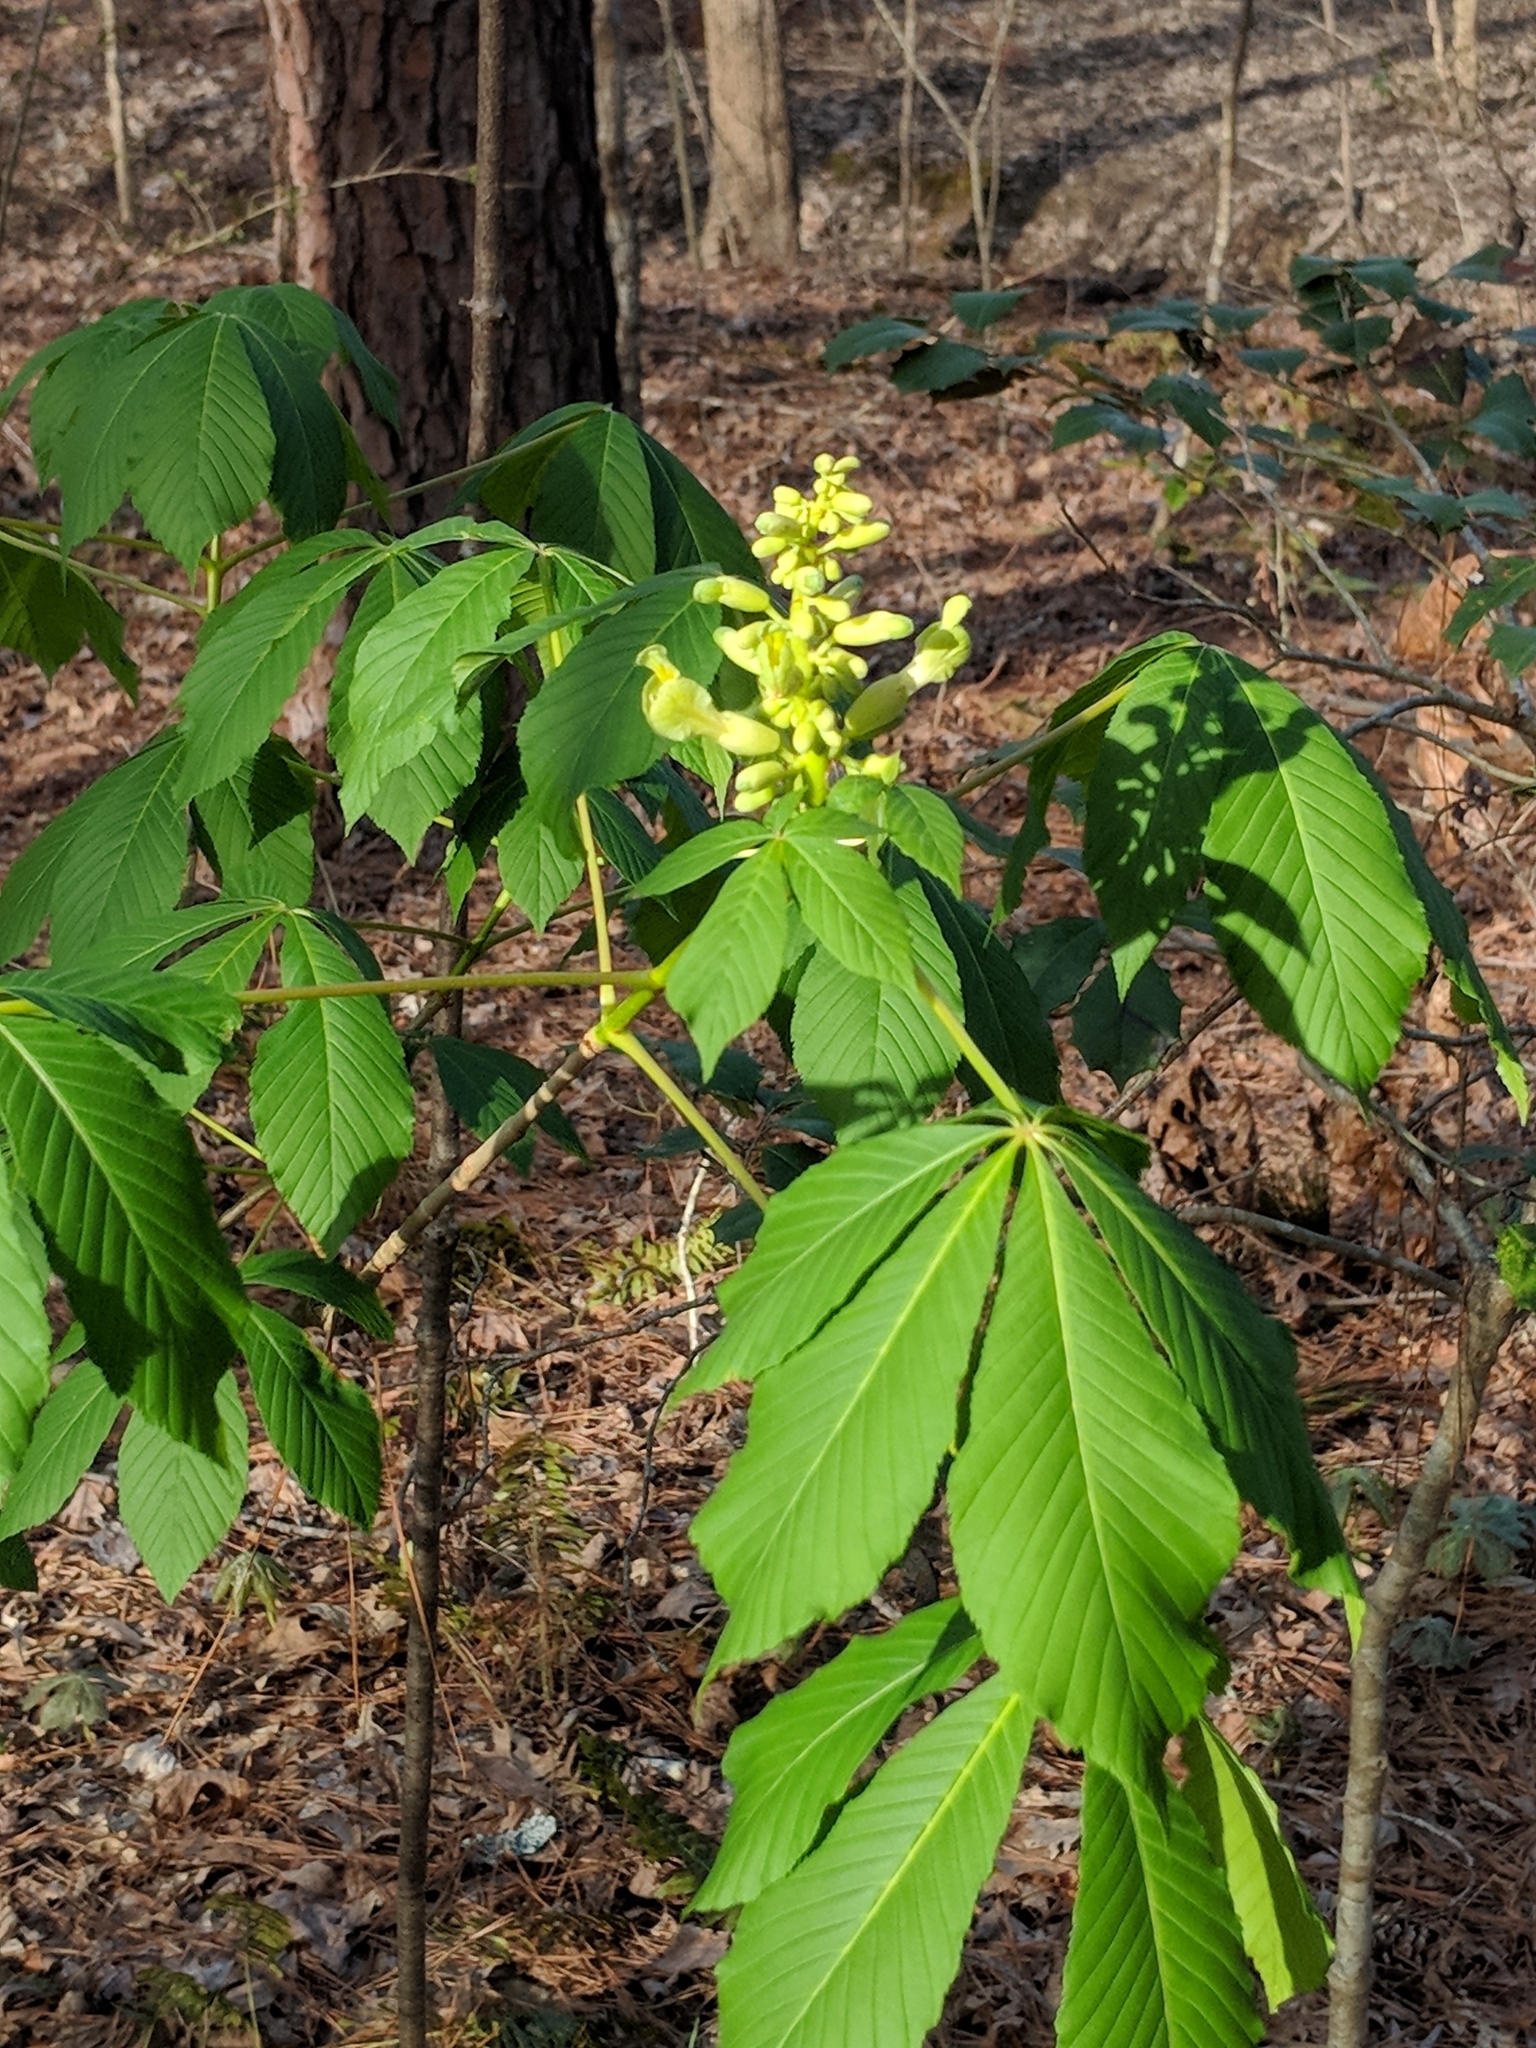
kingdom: Plantae
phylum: Tracheophyta
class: Magnoliopsida
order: Sapindales
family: Sapindaceae
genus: Aesculus
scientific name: Aesculus sylvatica
